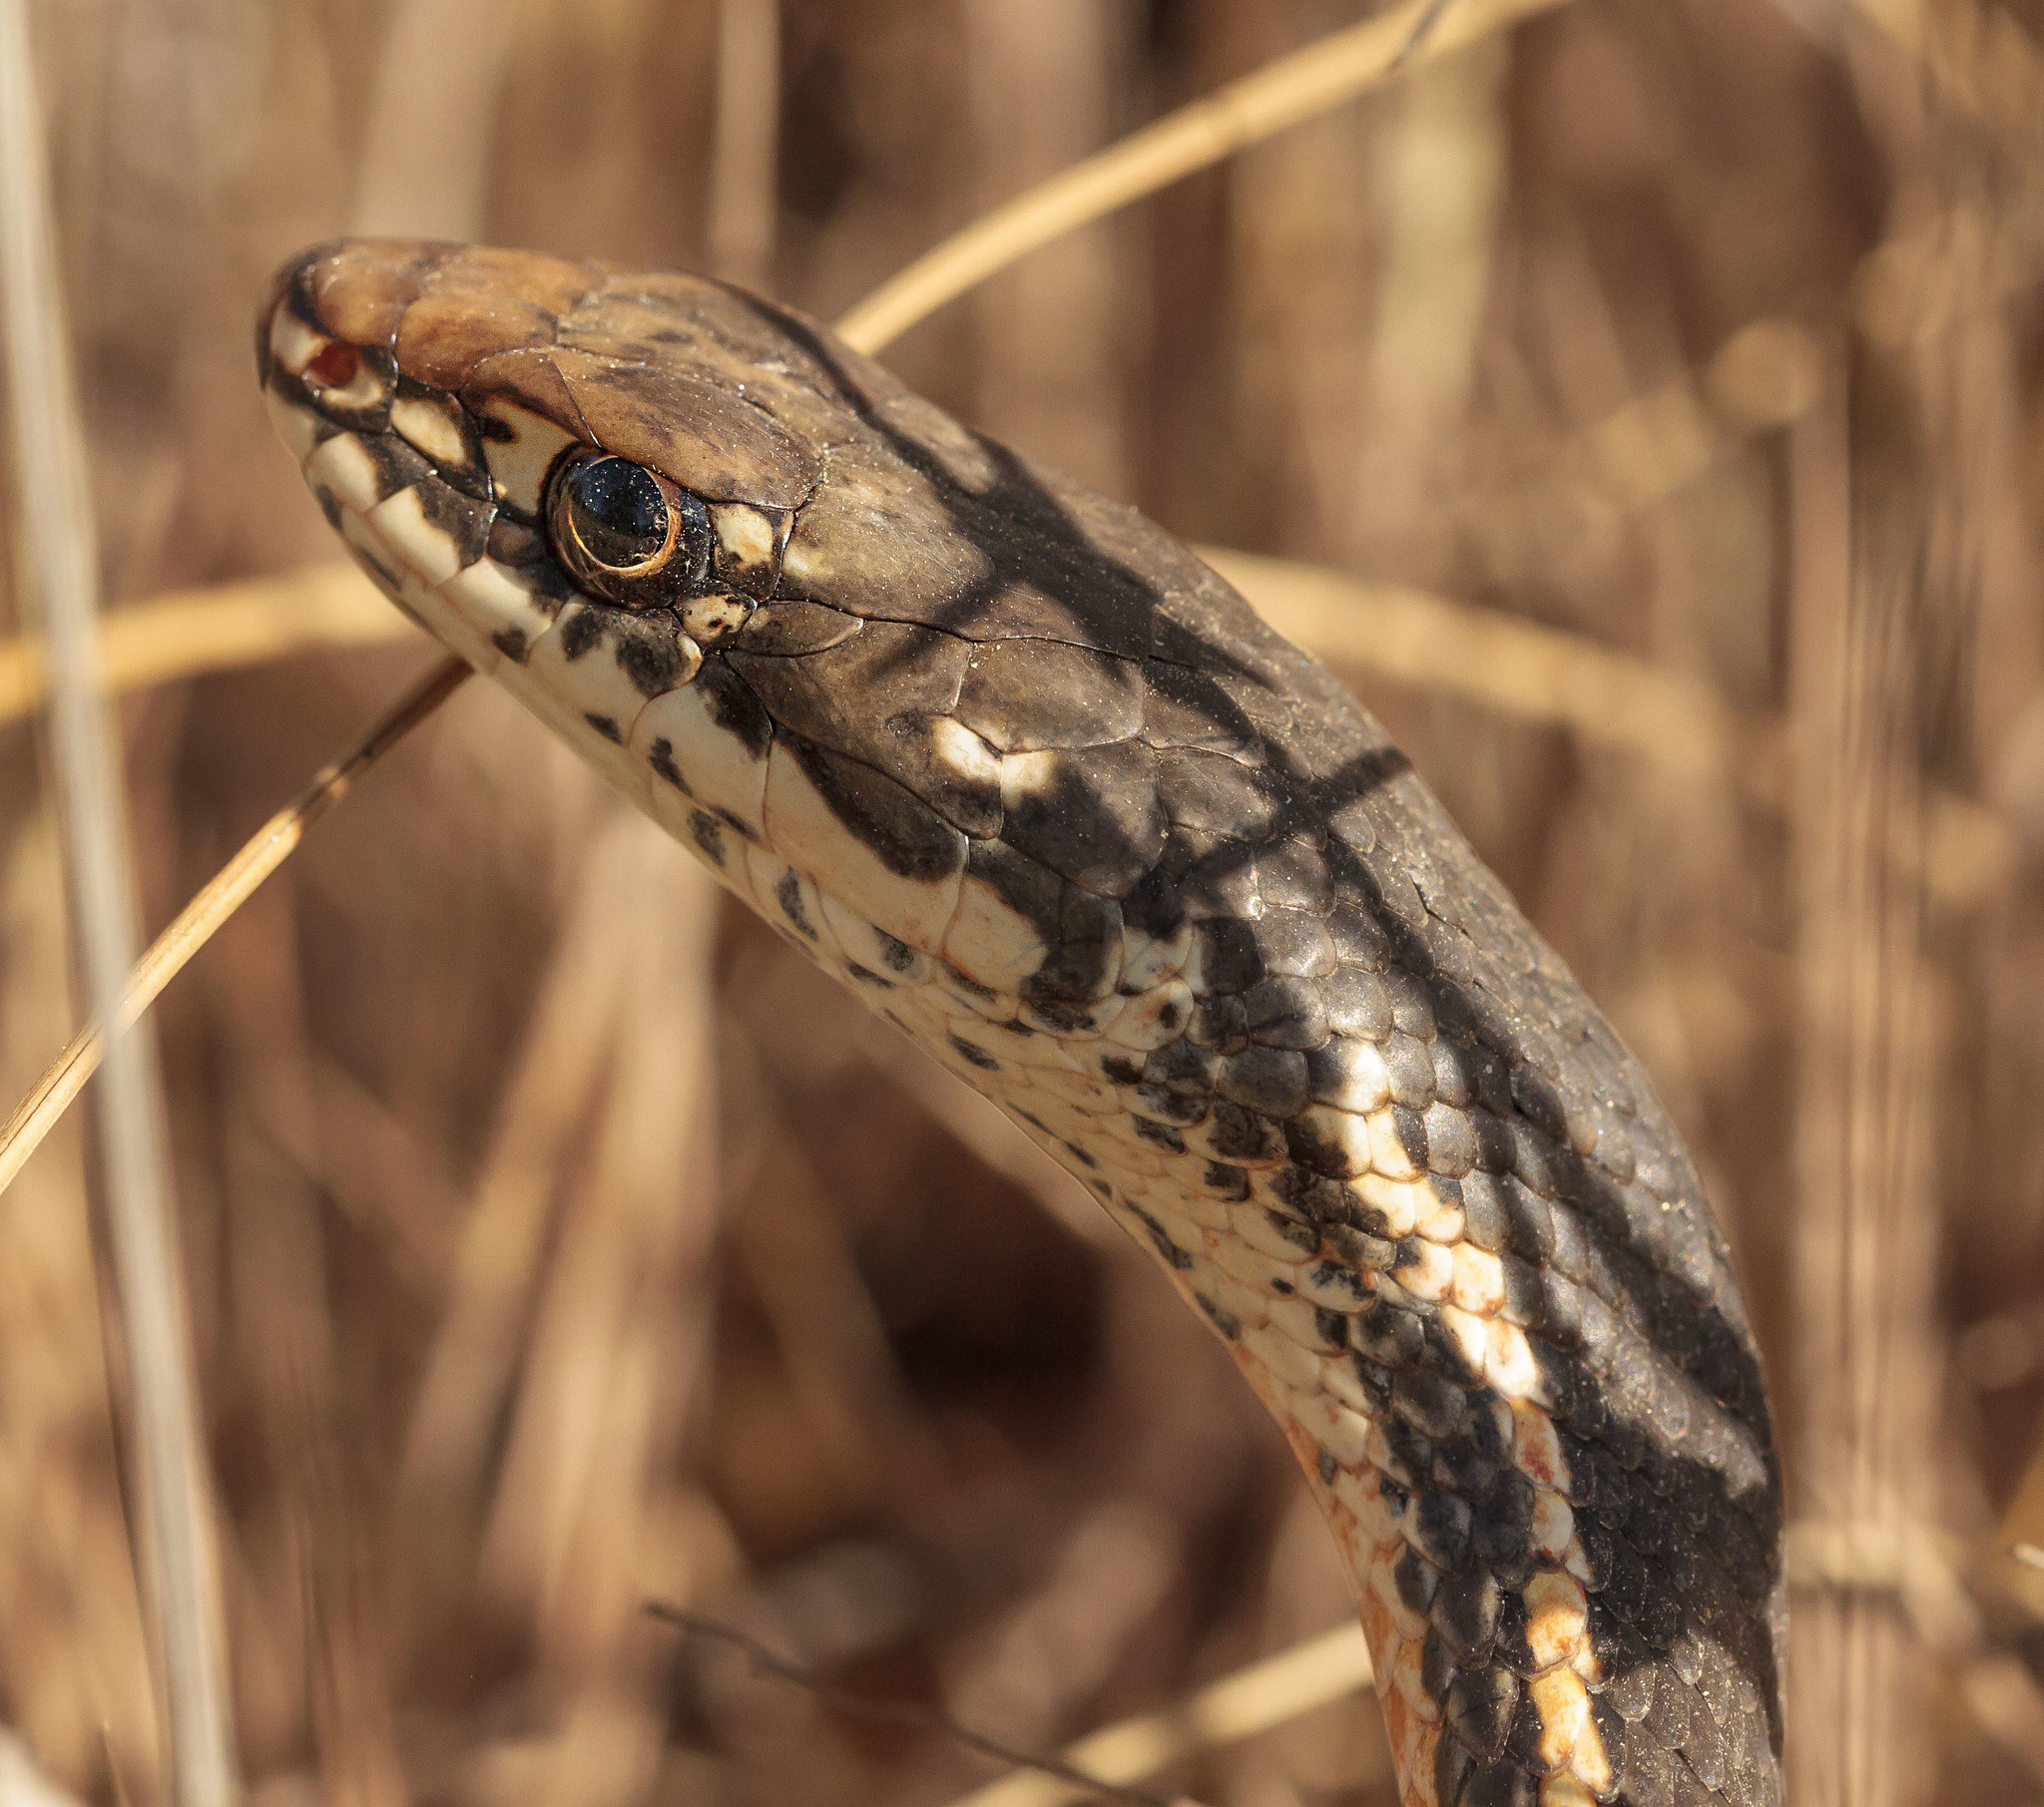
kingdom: Animalia
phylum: Chordata
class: Squamata
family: Colubridae
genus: Masticophis
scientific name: Masticophis lateralis
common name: Striped racer
